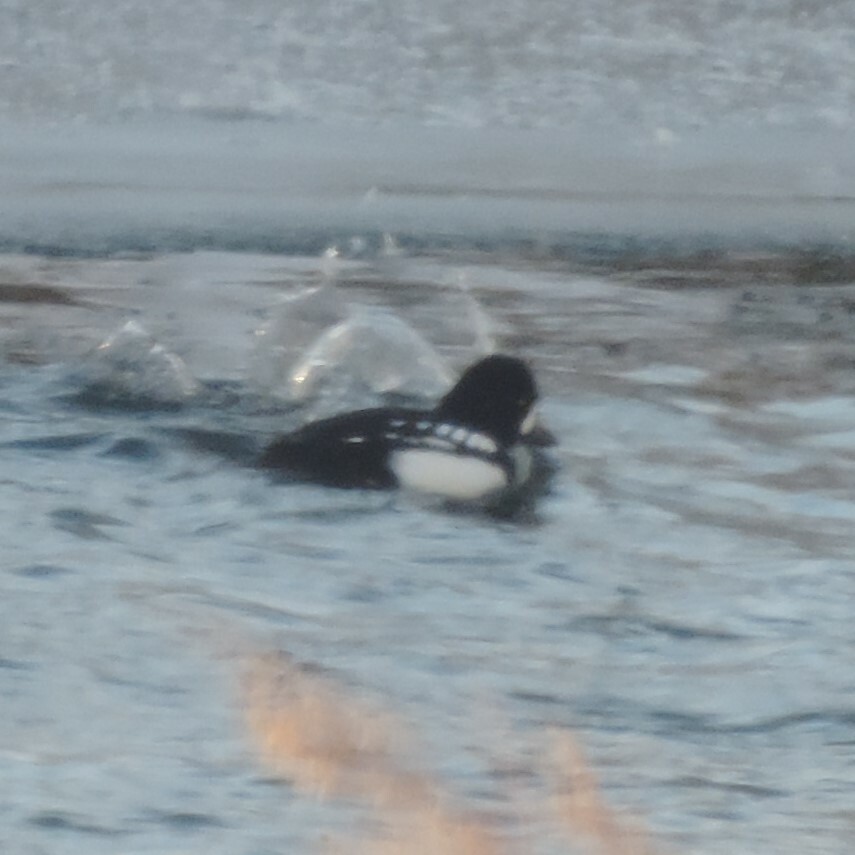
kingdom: Animalia
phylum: Chordata
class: Aves
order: Anseriformes
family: Anatidae
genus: Bucephala
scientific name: Bucephala islandica
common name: Barrow's goldeneye
